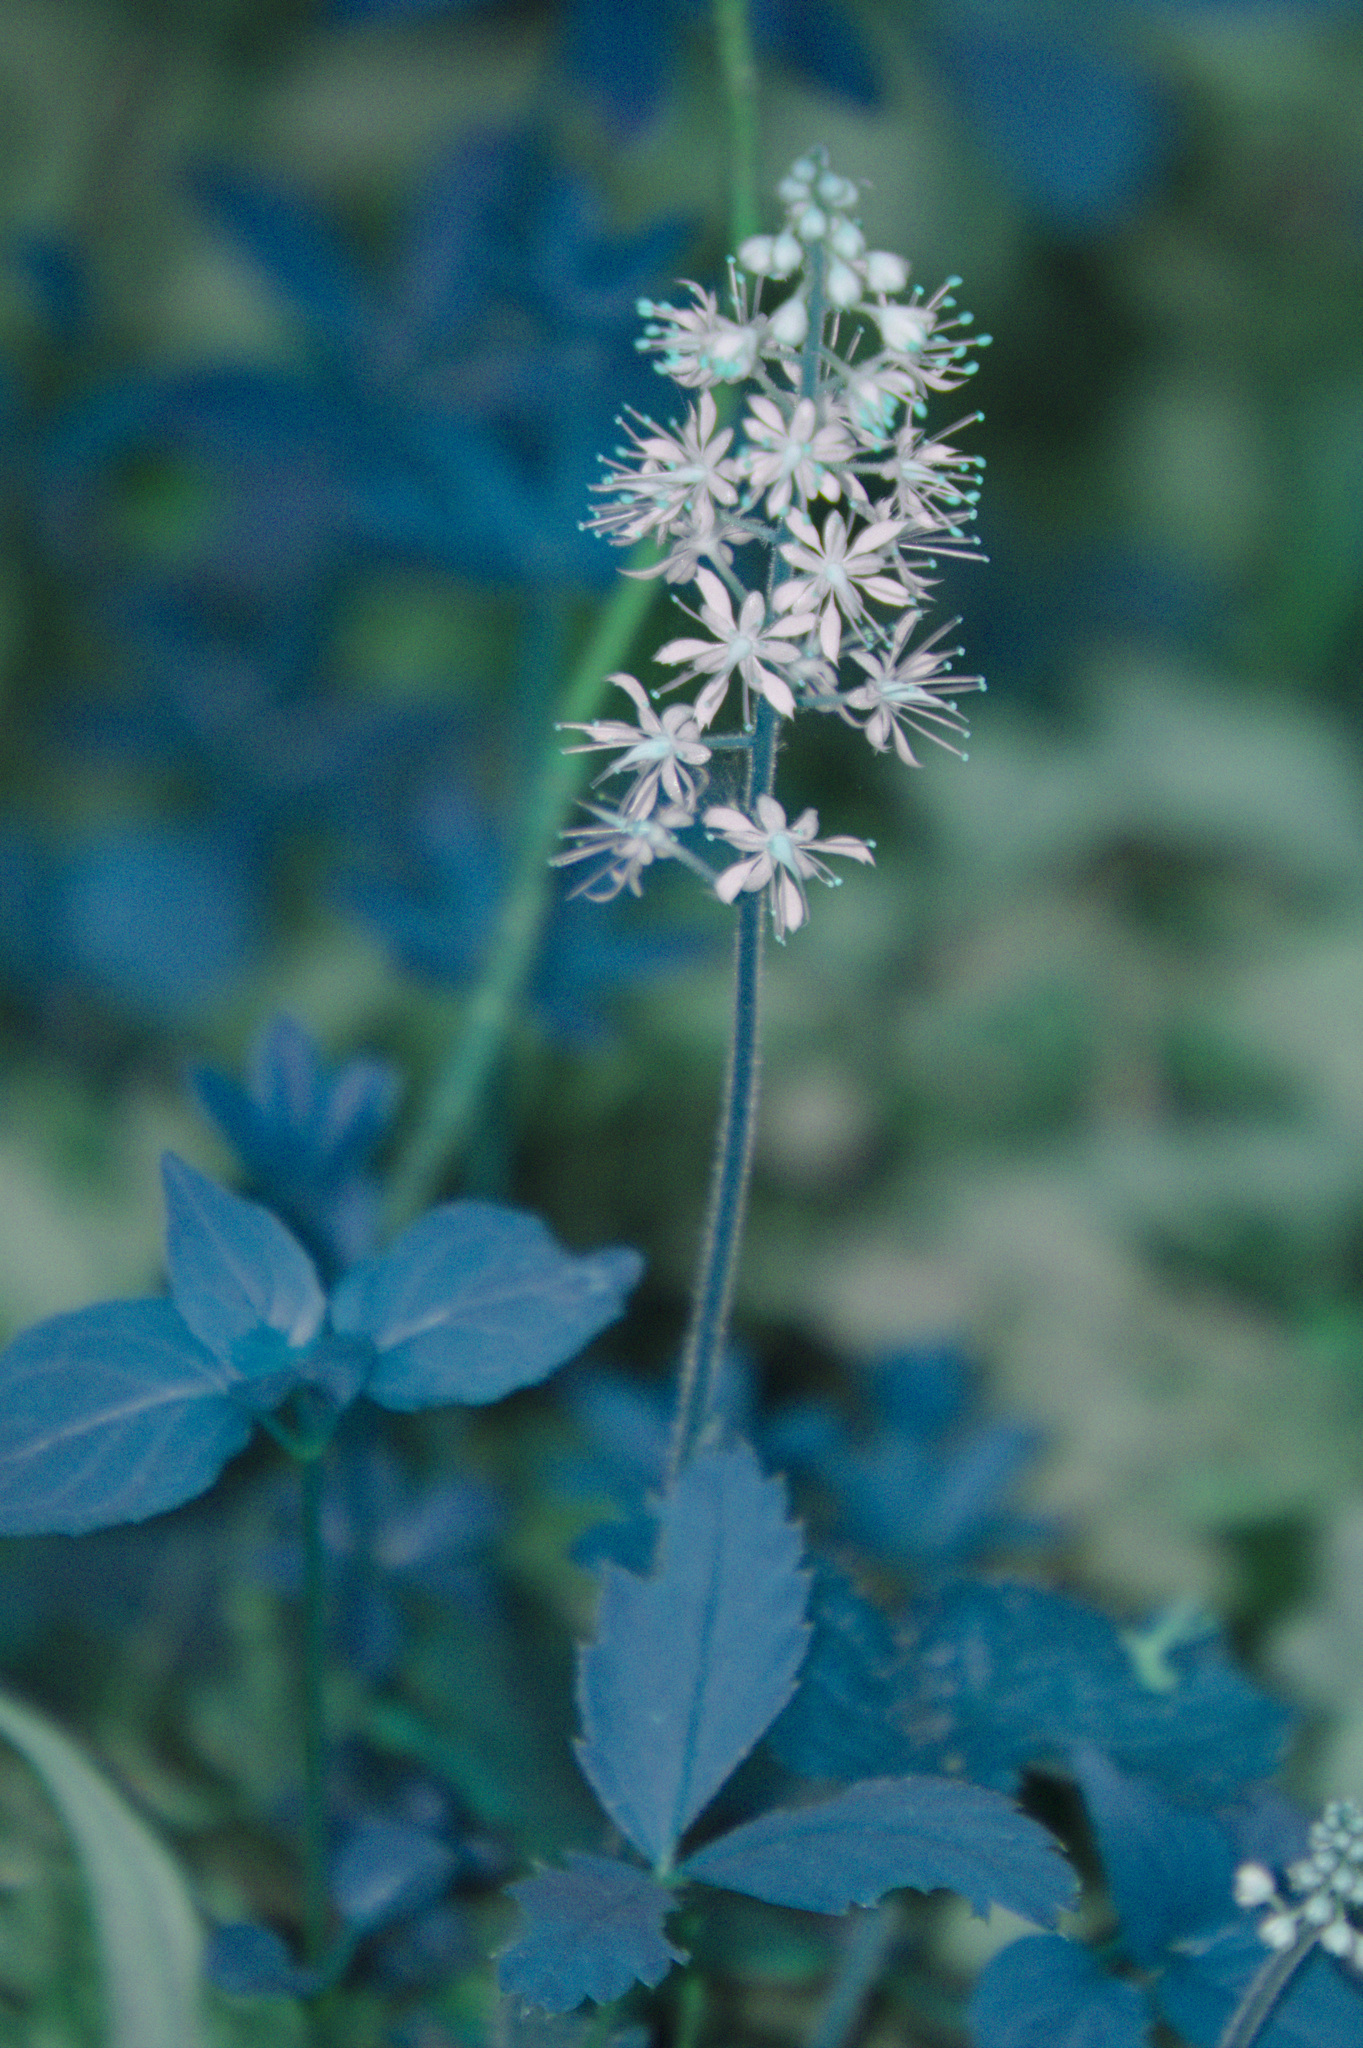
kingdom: Plantae
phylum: Tracheophyta
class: Magnoliopsida
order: Saxifragales
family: Saxifragaceae
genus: Tiarella
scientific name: Tiarella stolonifera
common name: Stoloniferous foamflower
